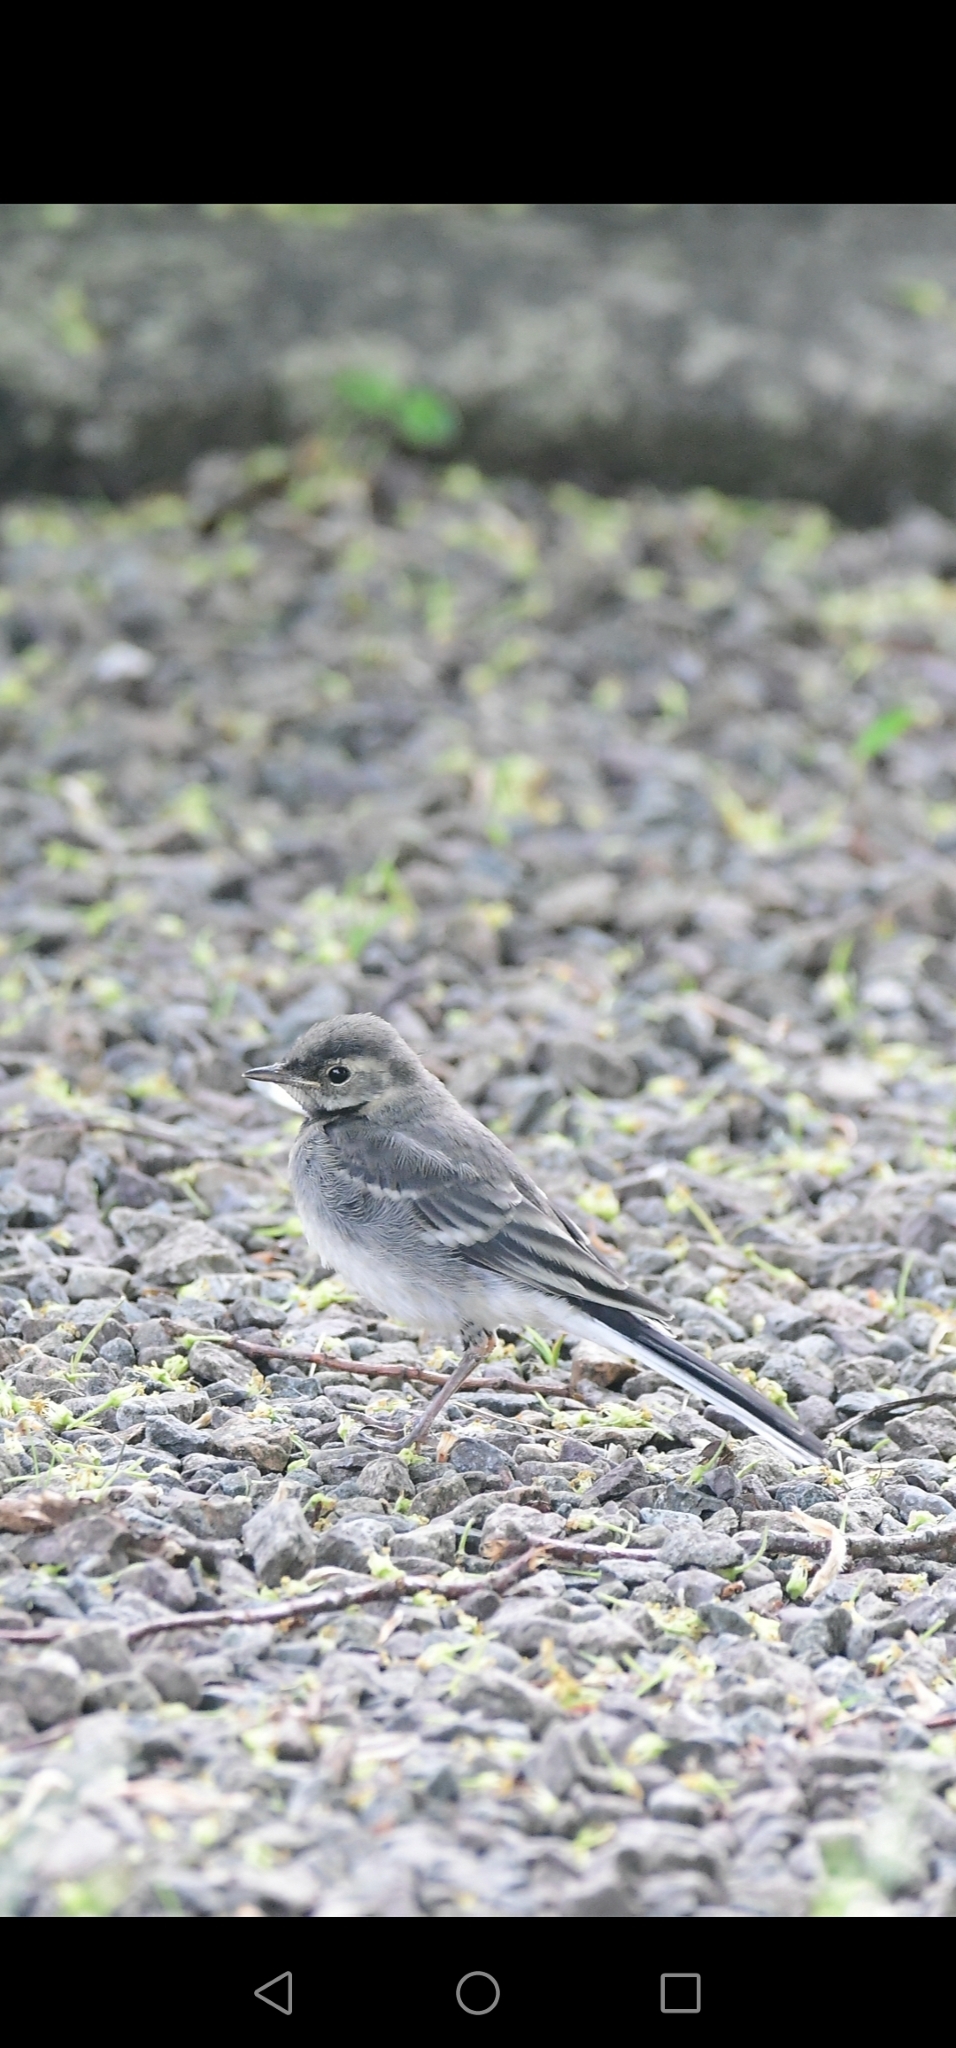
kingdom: Animalia
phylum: Chordata
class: Aves
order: Passeriformes
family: Motacillidae
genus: Motacilla
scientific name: Motacilla alba
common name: White wagtail
